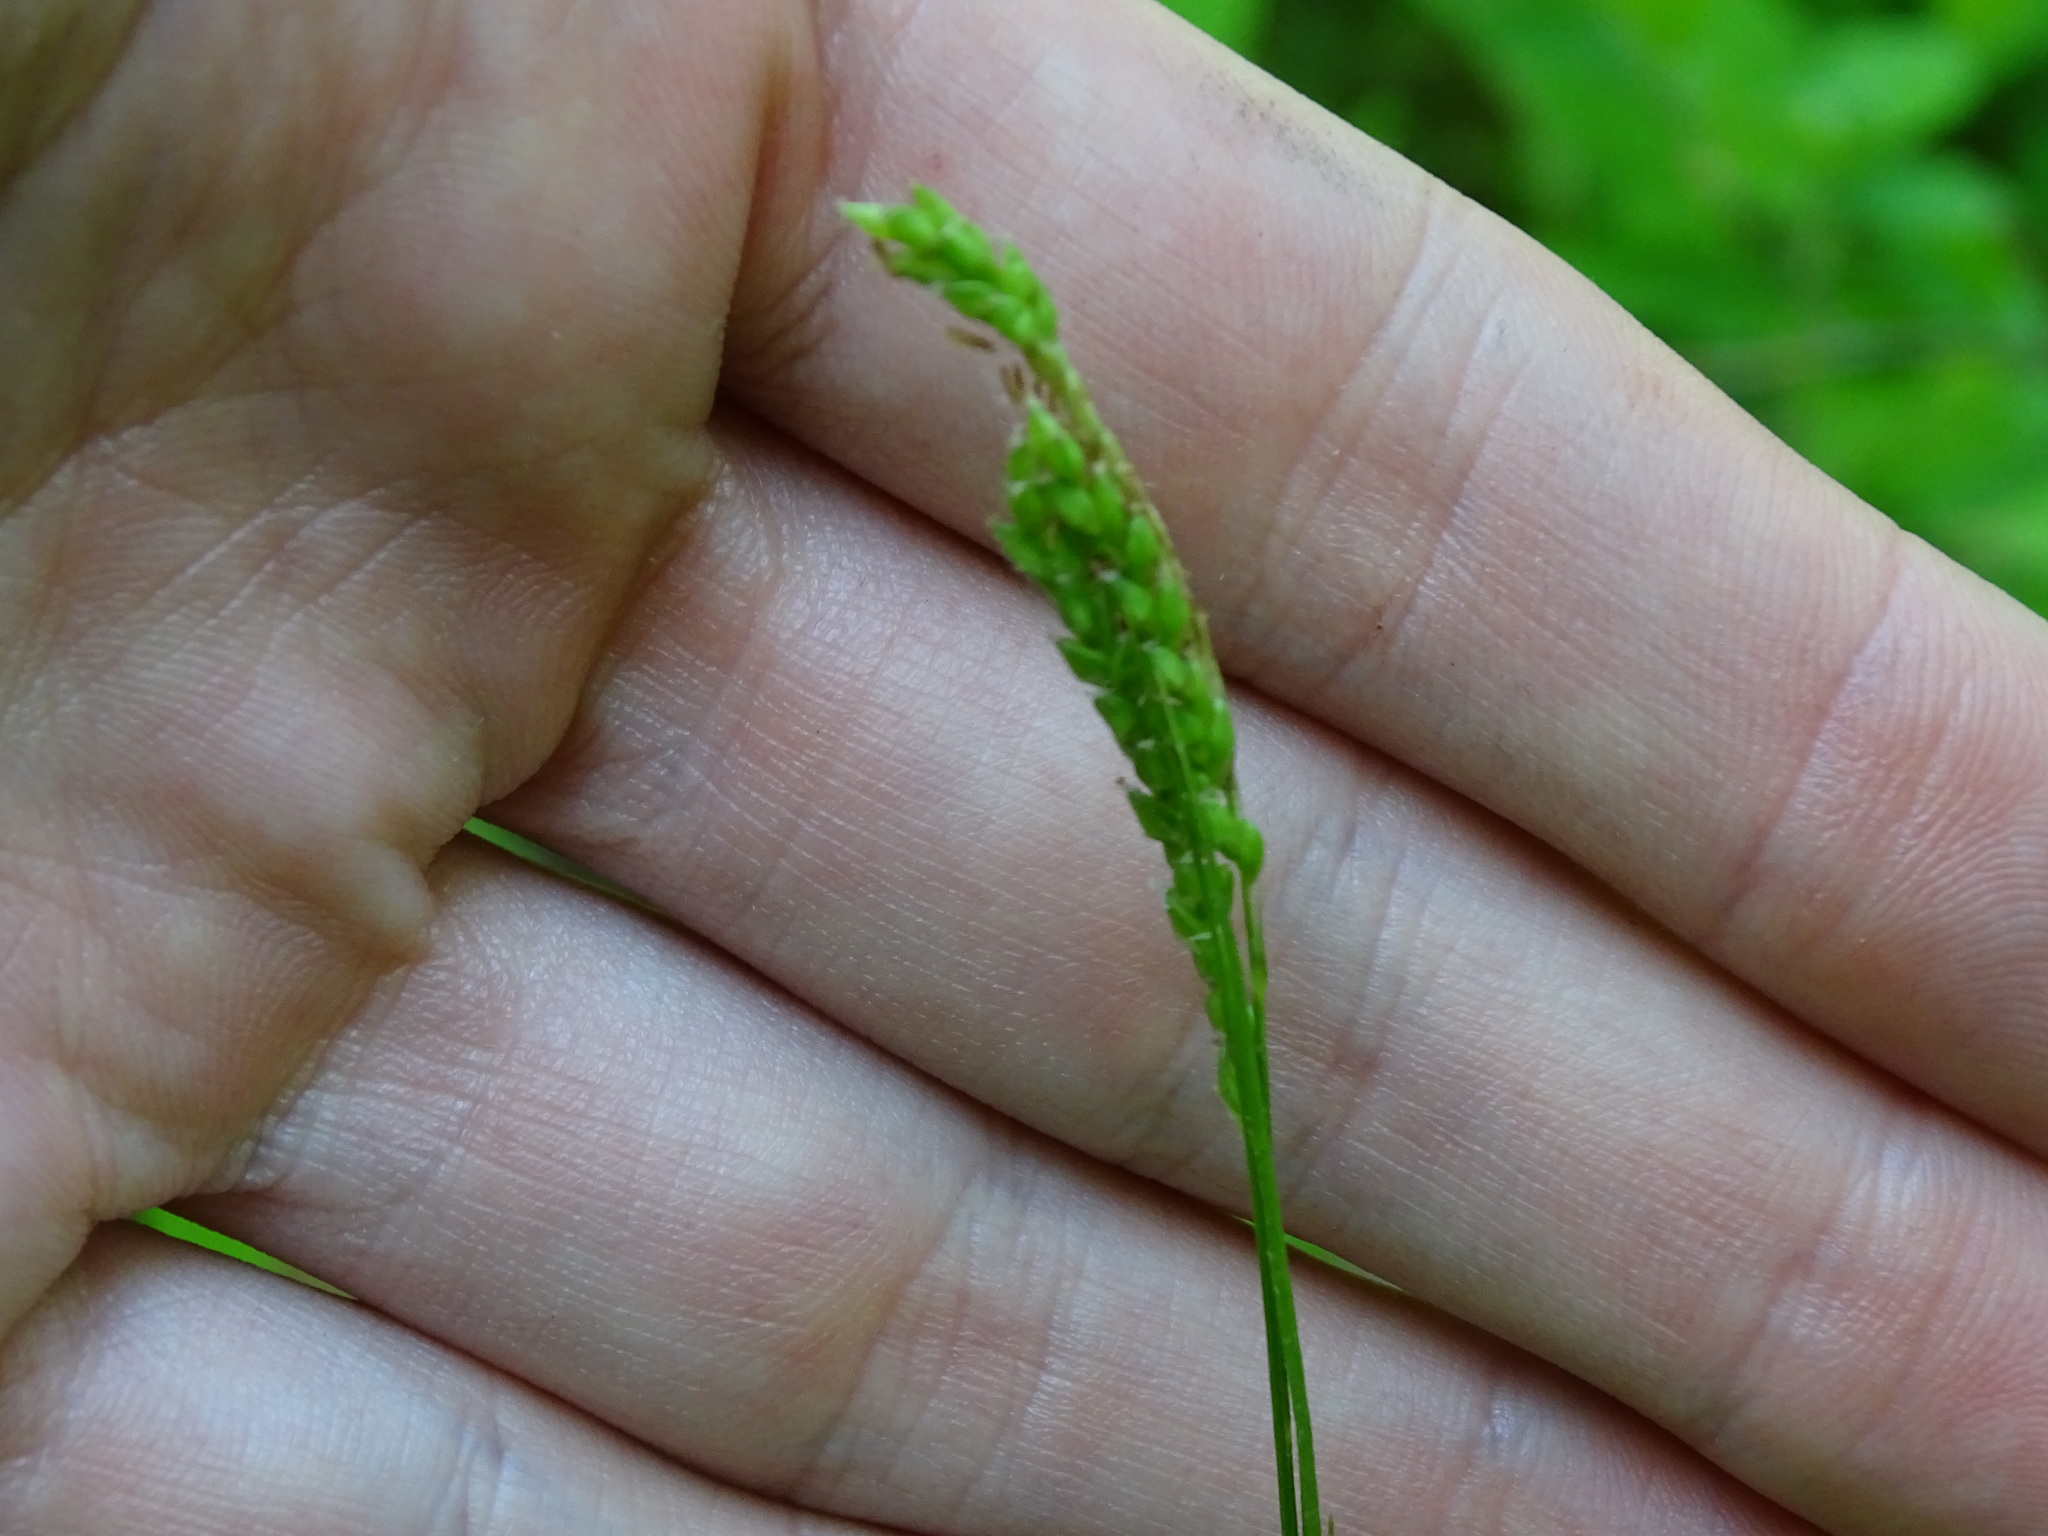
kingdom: Plantae
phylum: Tracheophyta
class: Liliopsida
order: Poales
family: Cyperaceae
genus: Carex
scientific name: Carex gracillima
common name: Graceful sedge
